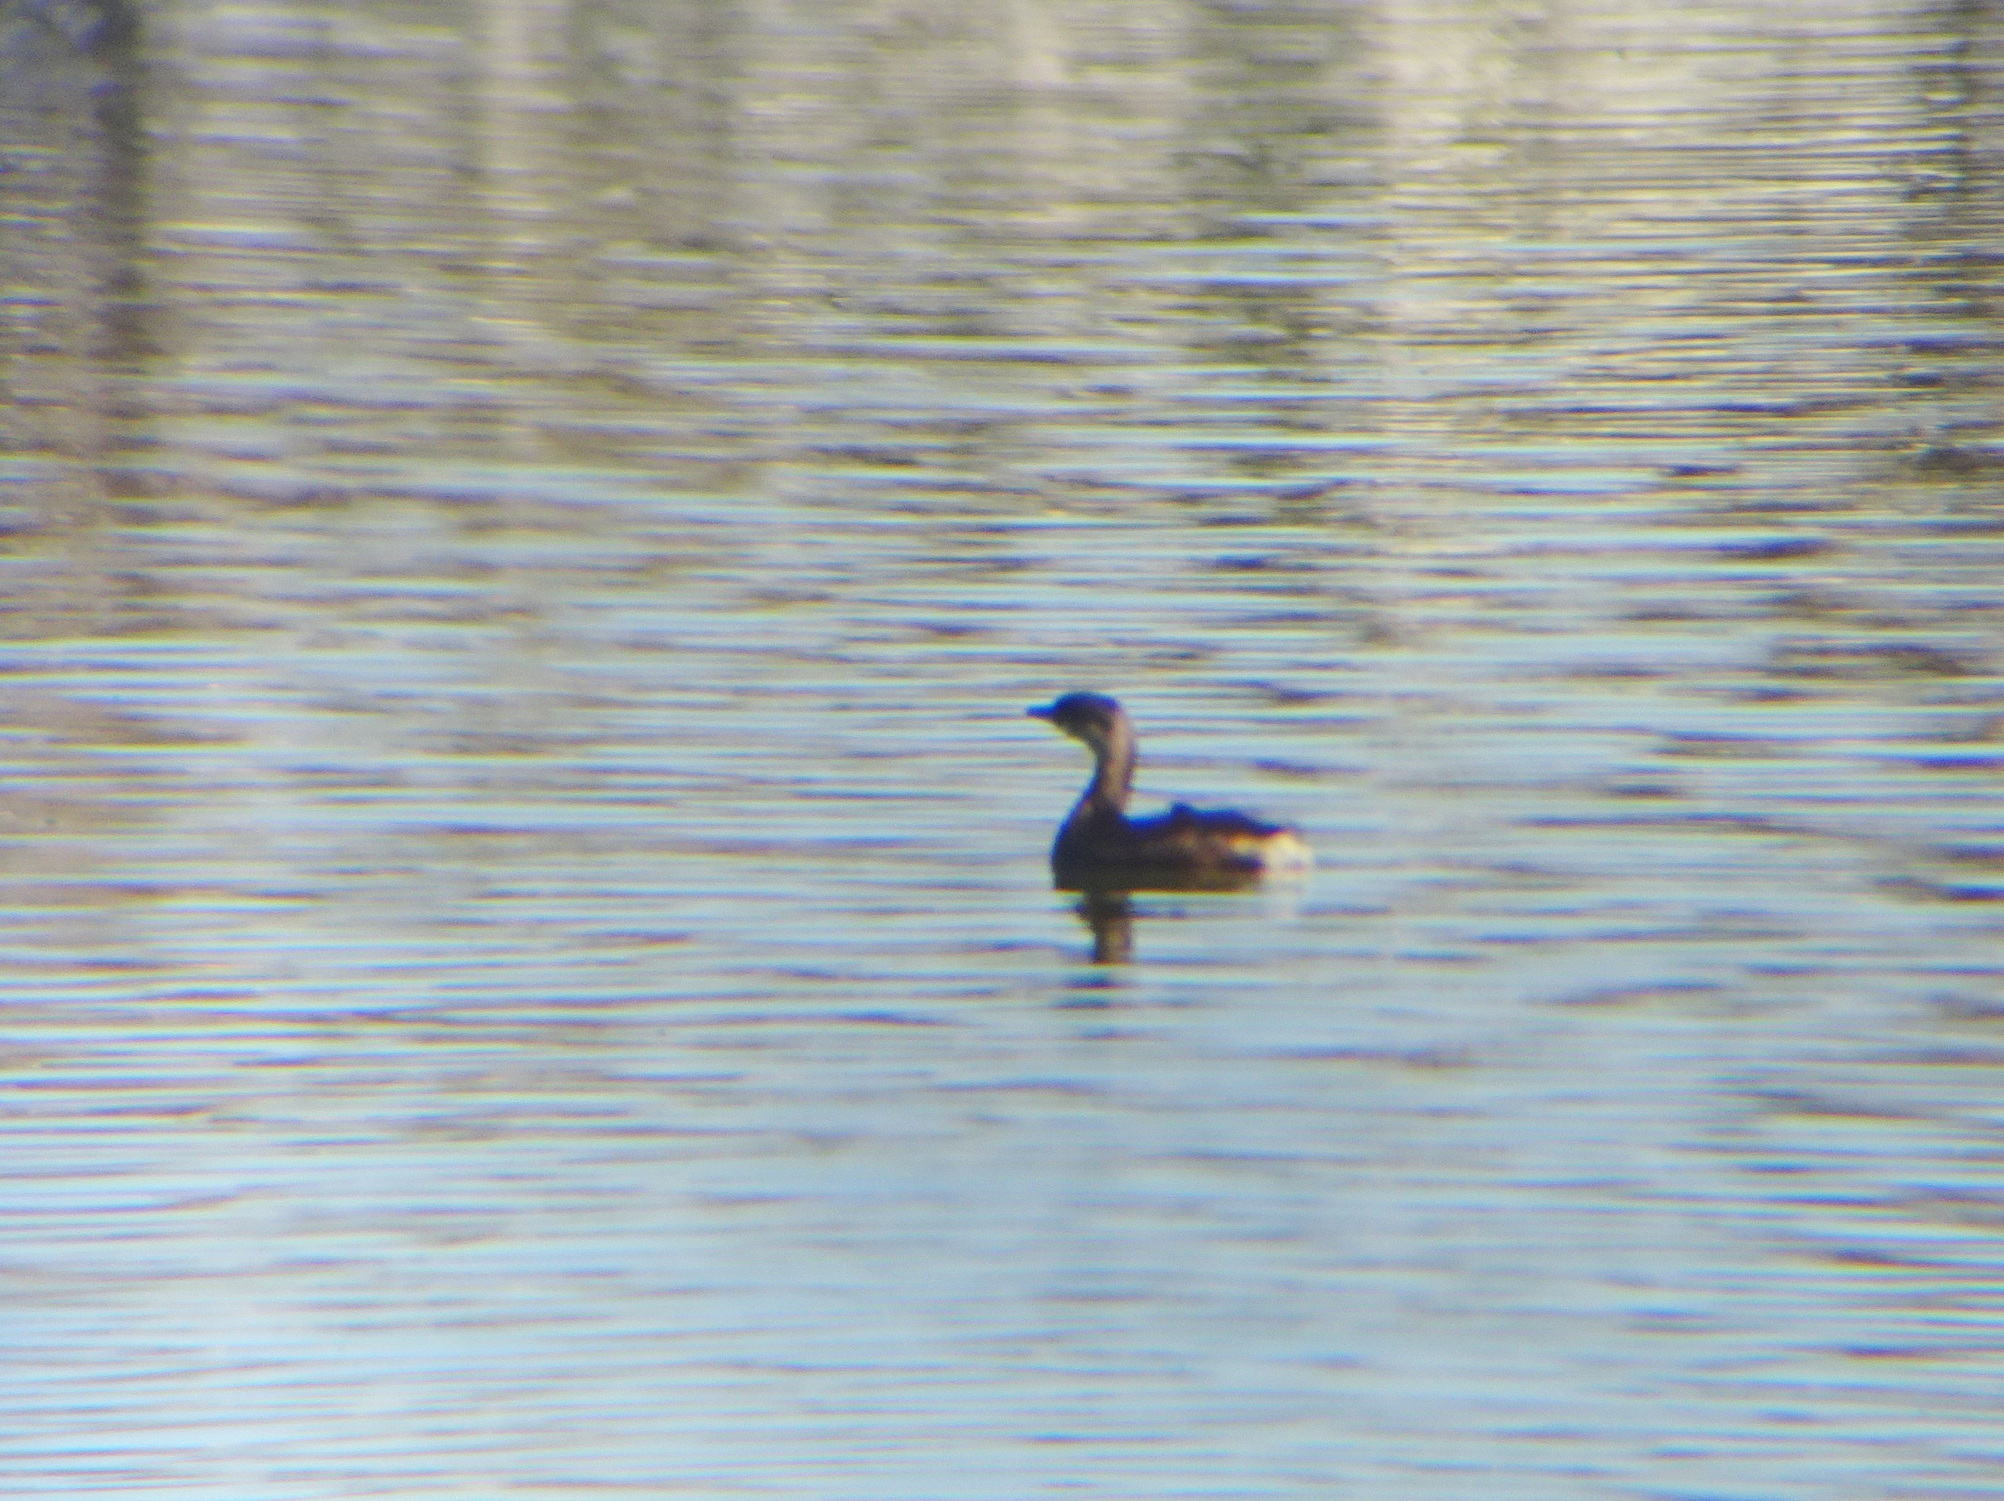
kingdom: Animalia
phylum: Chordata
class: Aves
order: Podicipediformes
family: Podicipedidae
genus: Podilymbus
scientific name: Podilymbus podiceps
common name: Pied-billed grebe
